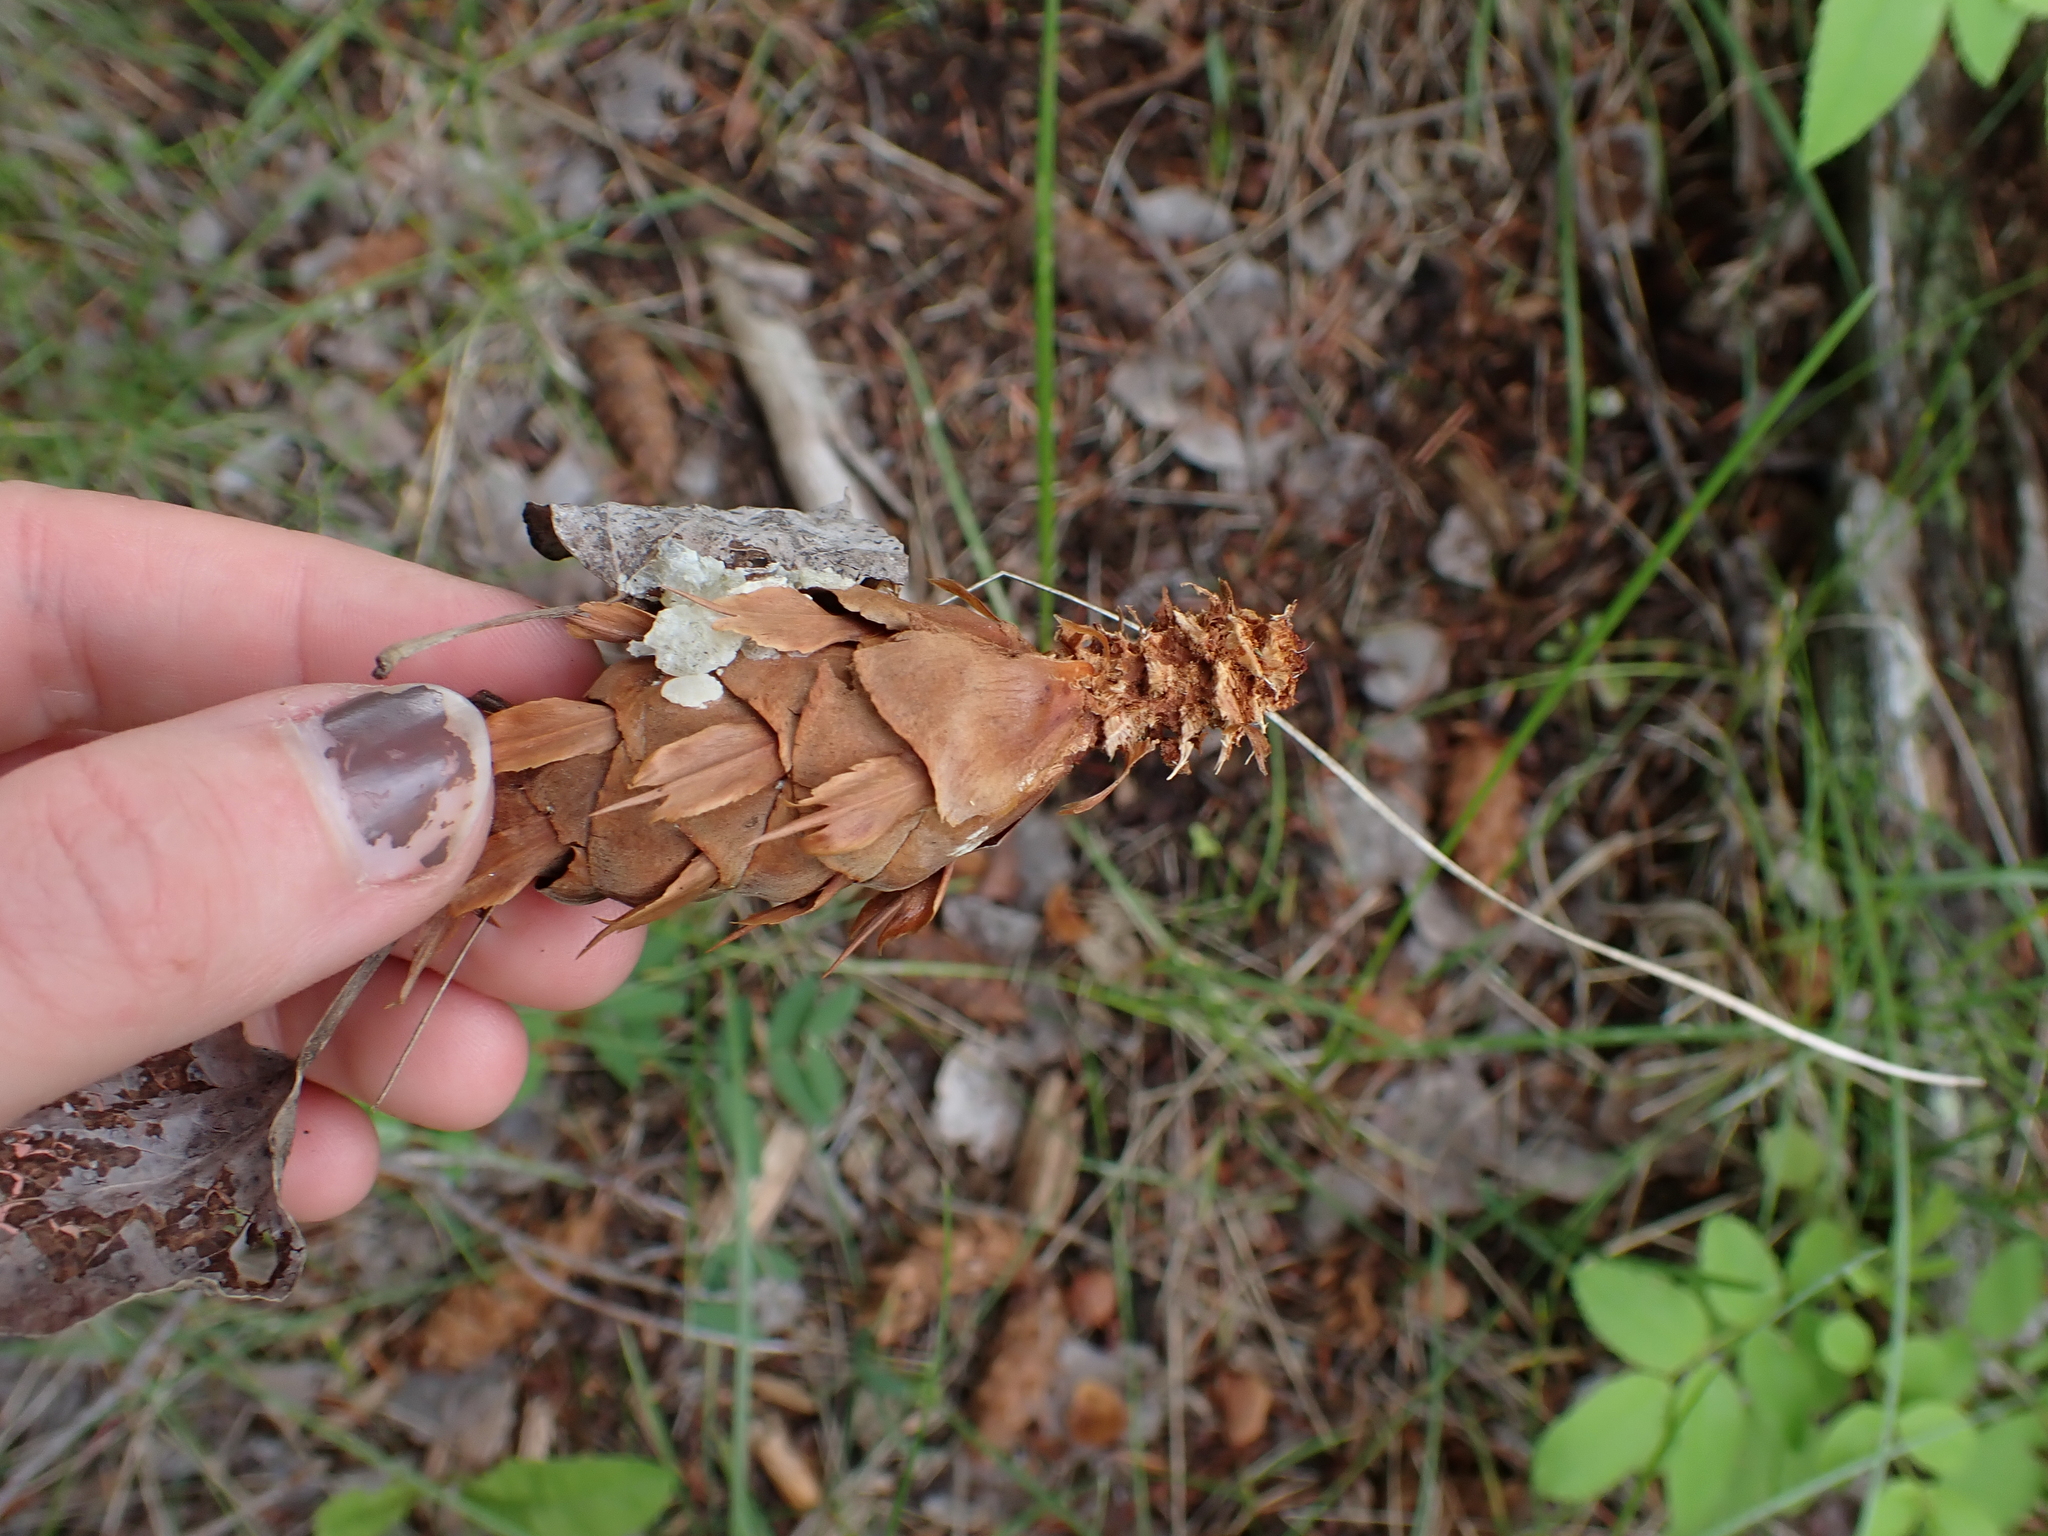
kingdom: Plantae
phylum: Tracheophyta
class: Pinopsida
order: Pinales
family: Pinaceae
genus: Pseudotsuga
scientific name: Pseudotsuga menziesii
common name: Douglas fir
